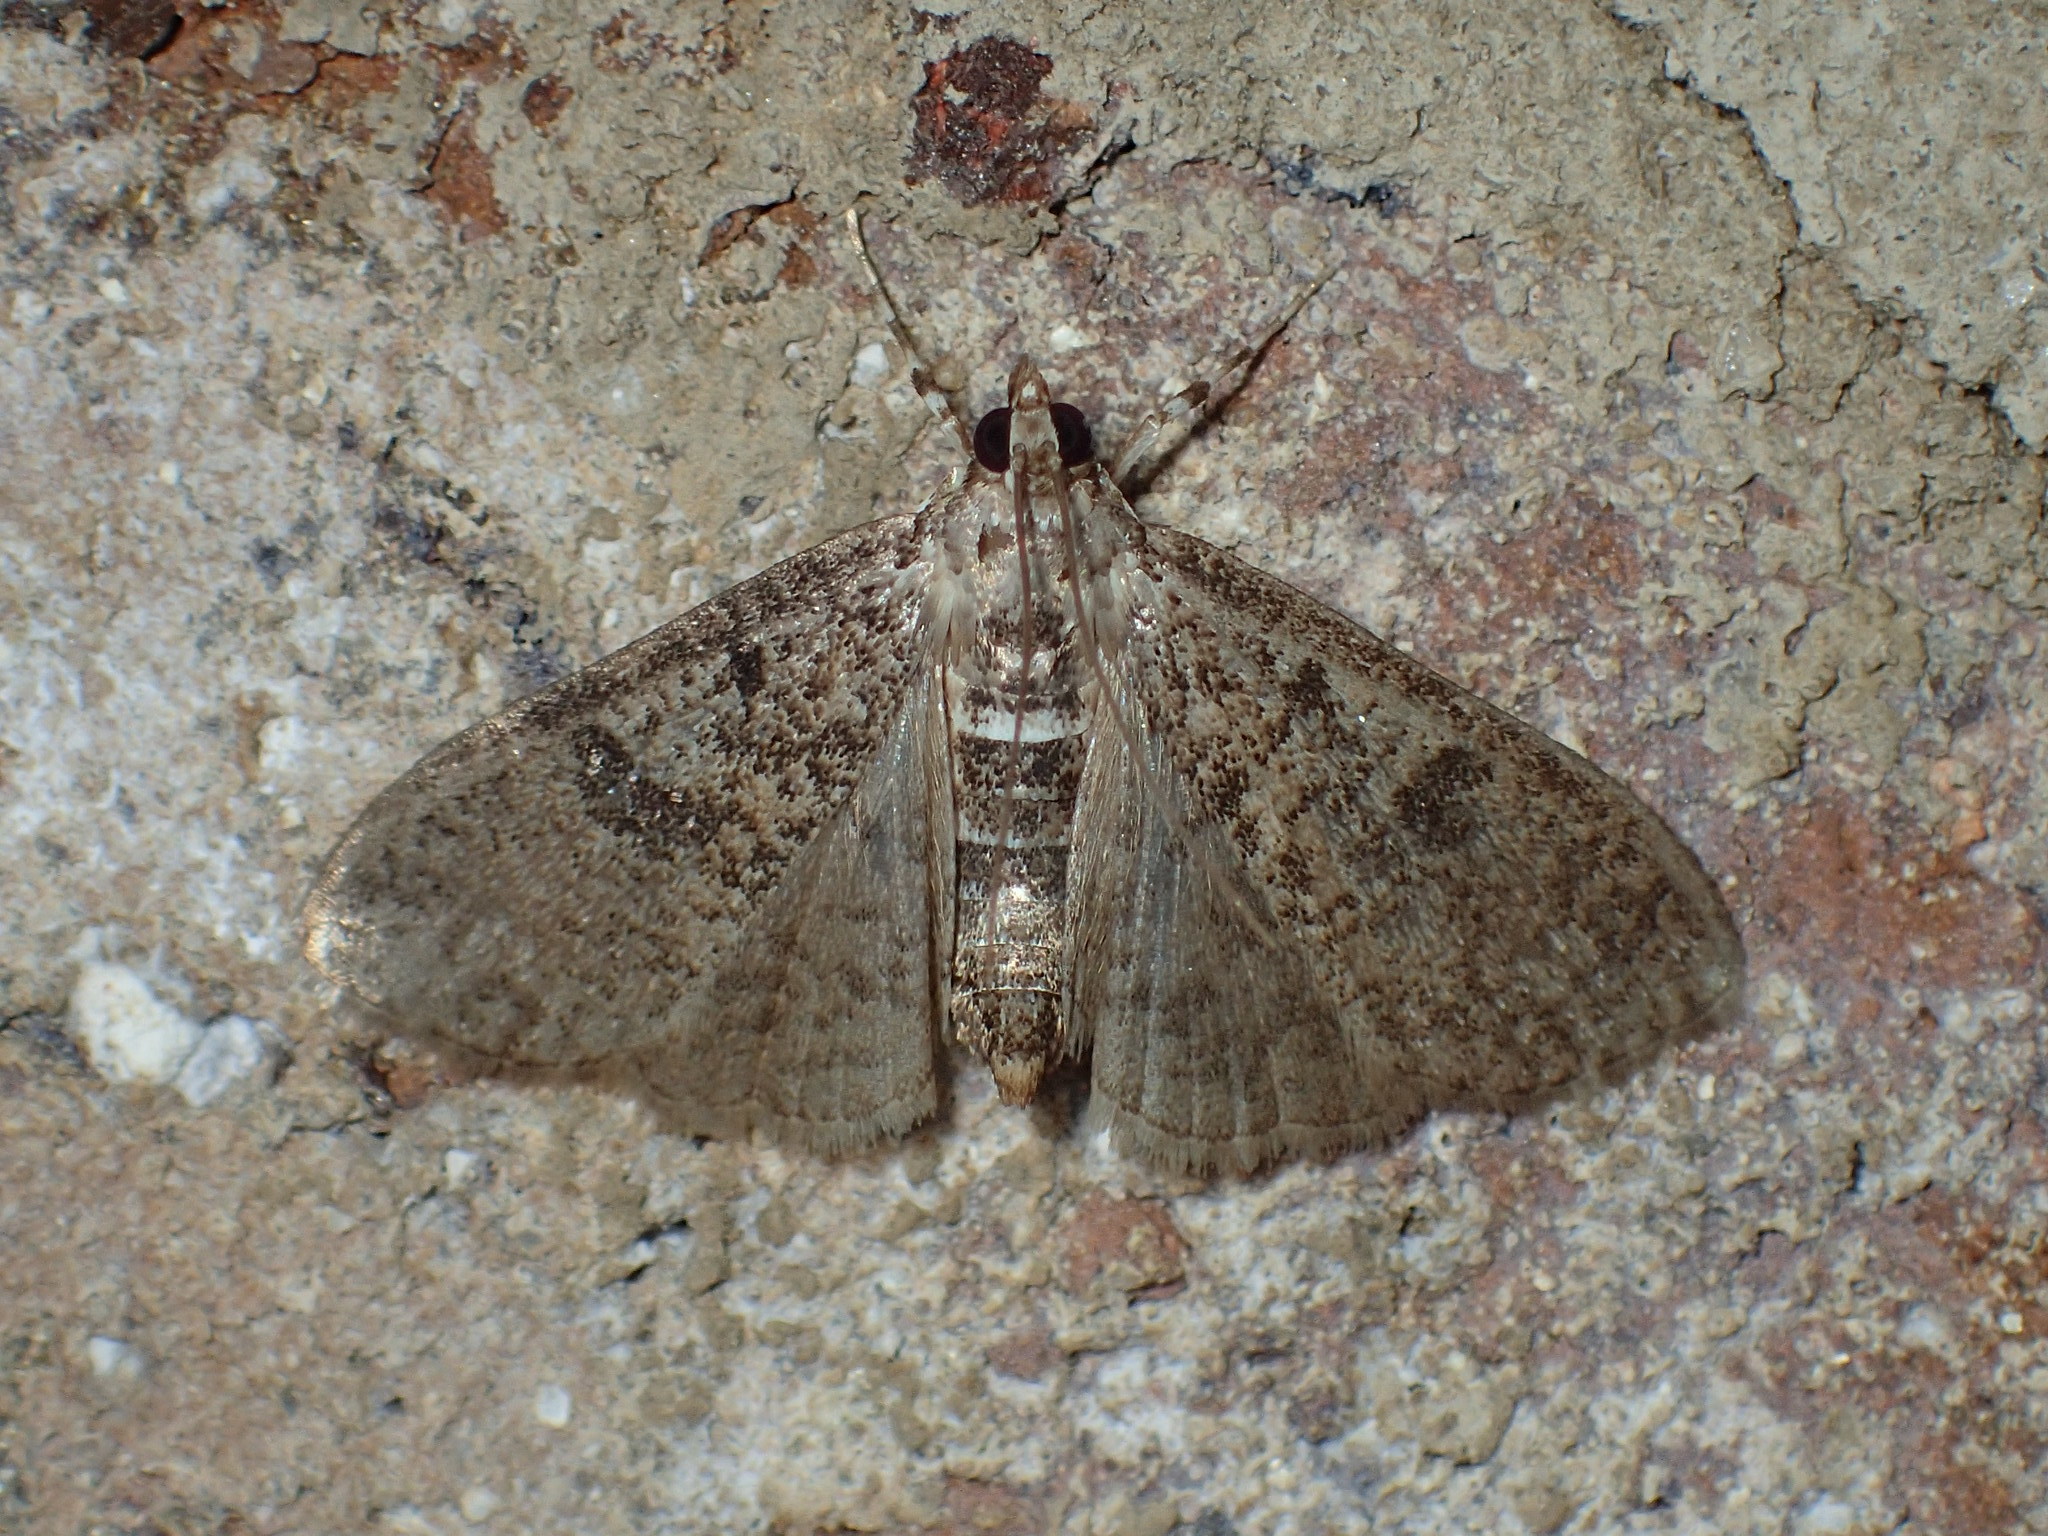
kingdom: Animalia
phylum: Arthropoda
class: Insecta
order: Lepidoptera
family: Crambidae
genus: Palpita
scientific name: Palpita magniferalis
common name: Splendid palpita moth
